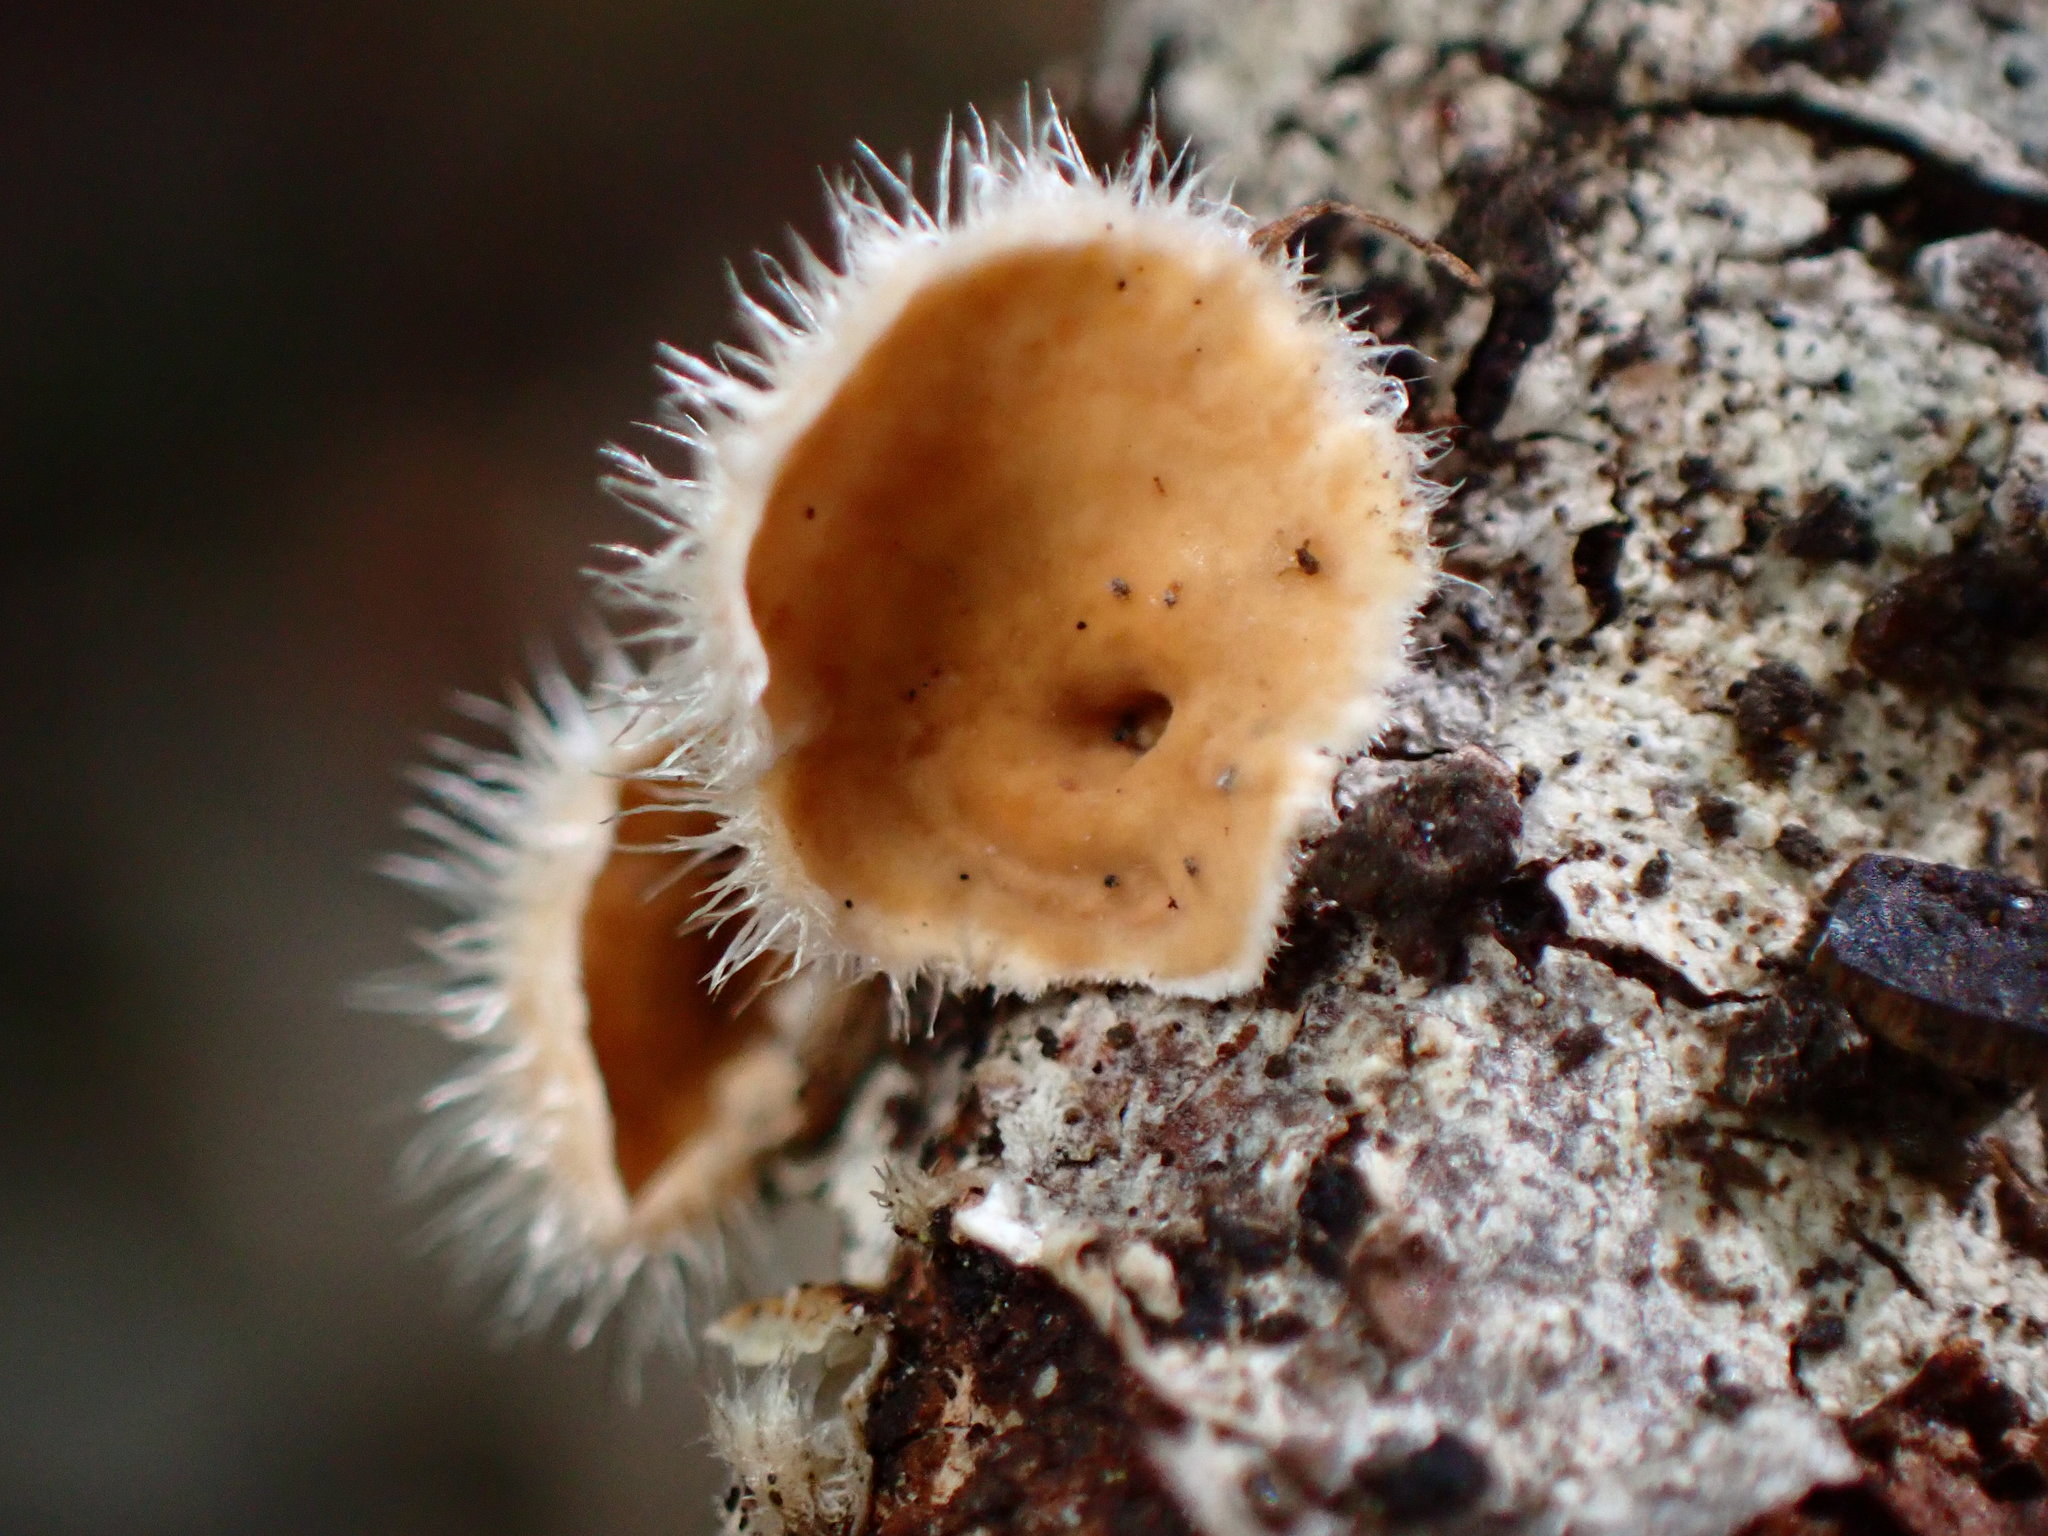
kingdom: Fungi
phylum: Basidiomycota
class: Agaricomycetes
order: Russulales
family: Stereaceae
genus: Stereum
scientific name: Stereum ochraceoflavum
